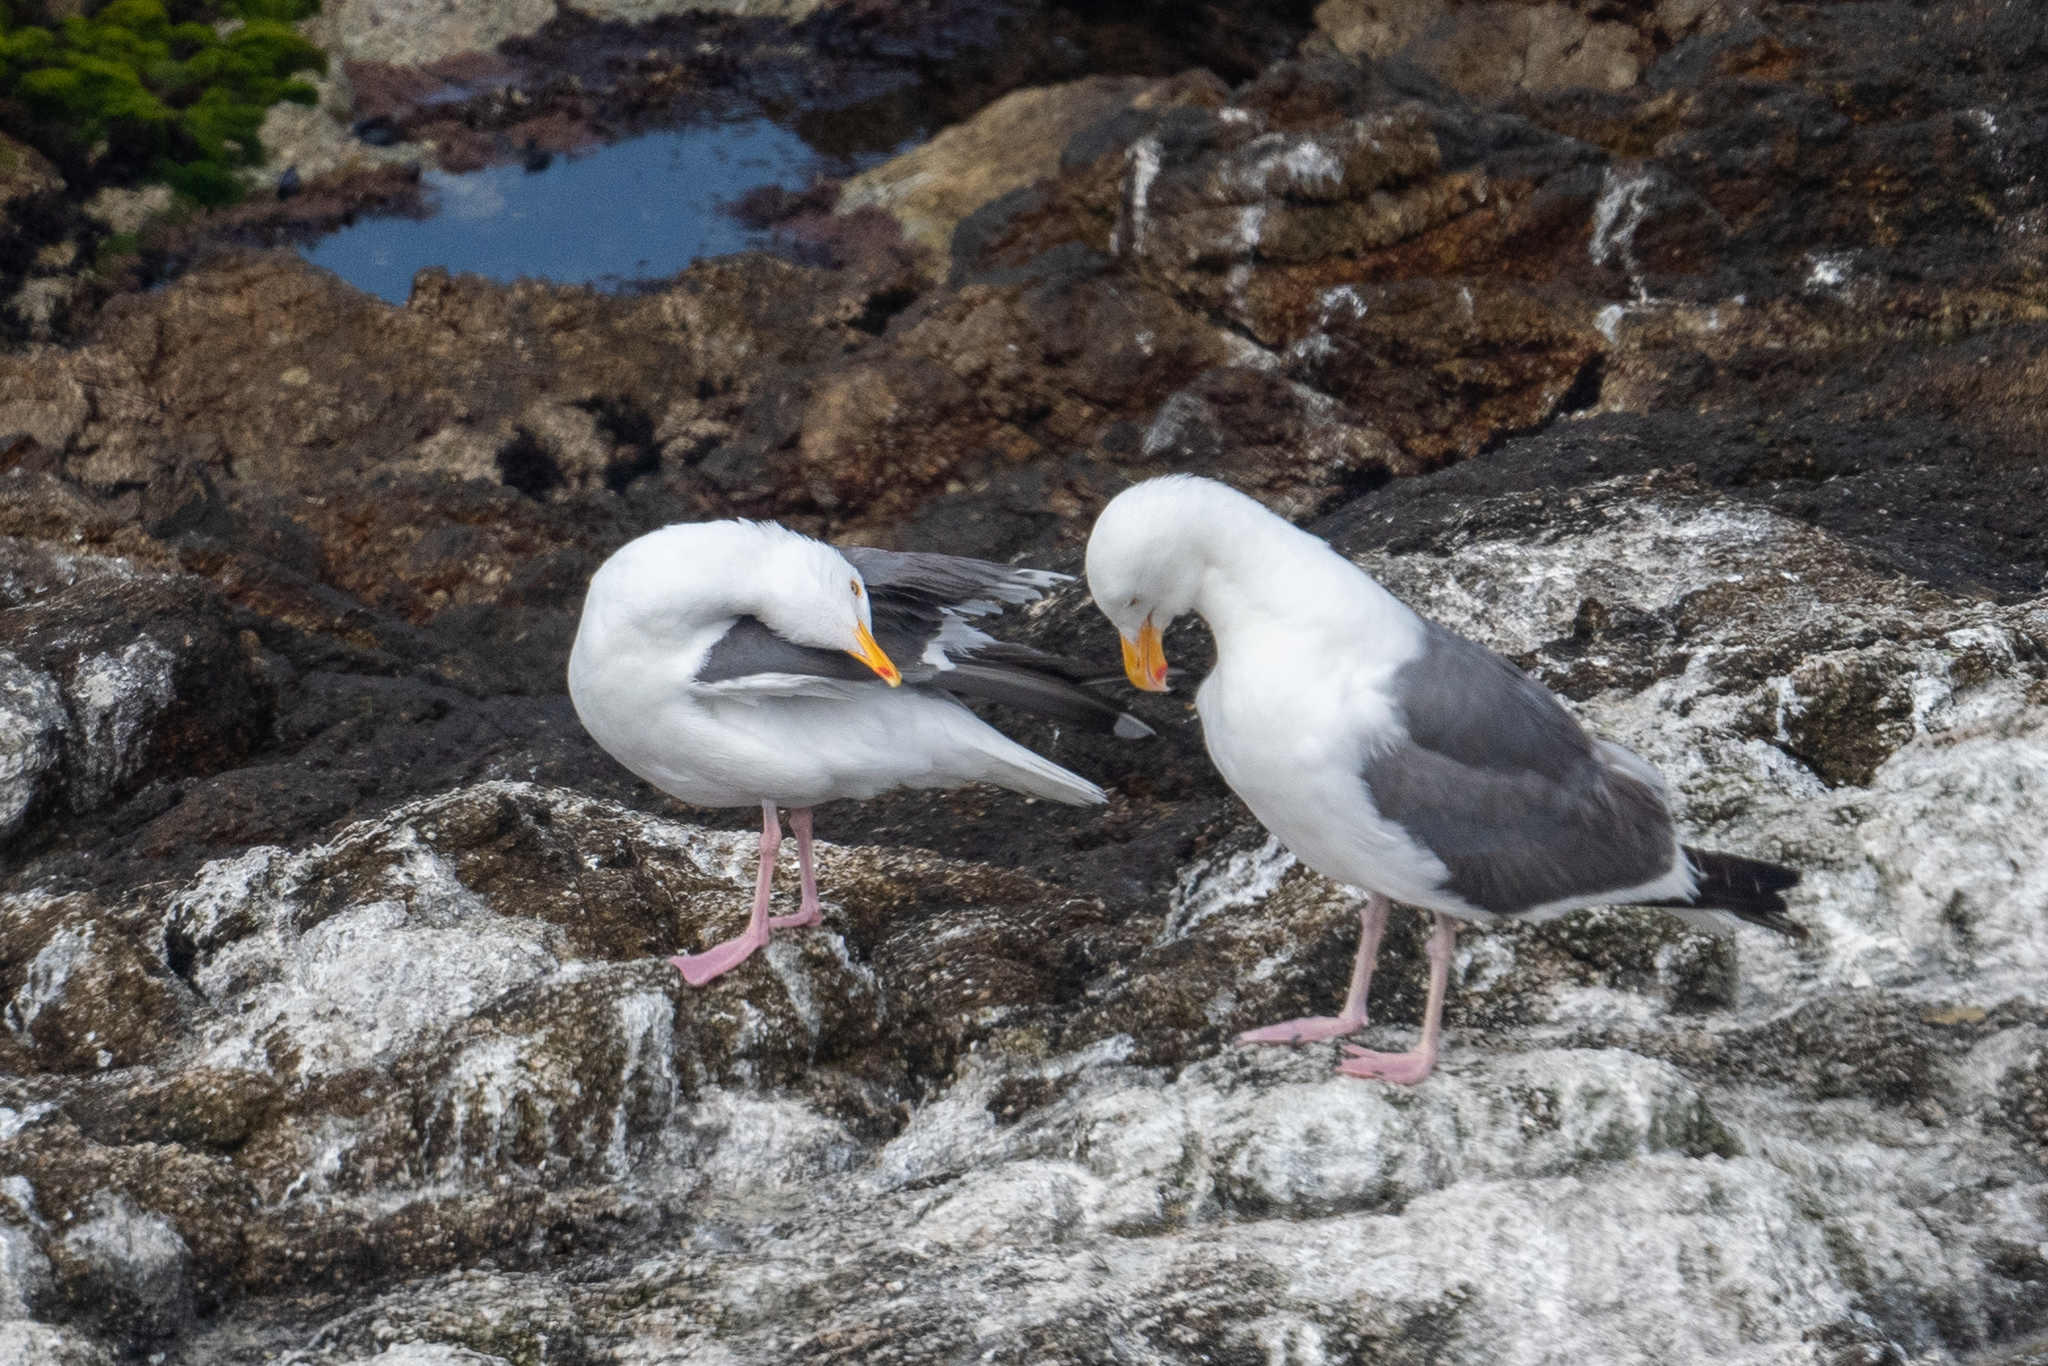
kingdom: Animalia
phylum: Chordata
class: Aves
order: Charadriiformes
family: Laridae
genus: Larus
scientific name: Larus occidentalis
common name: Western gull
